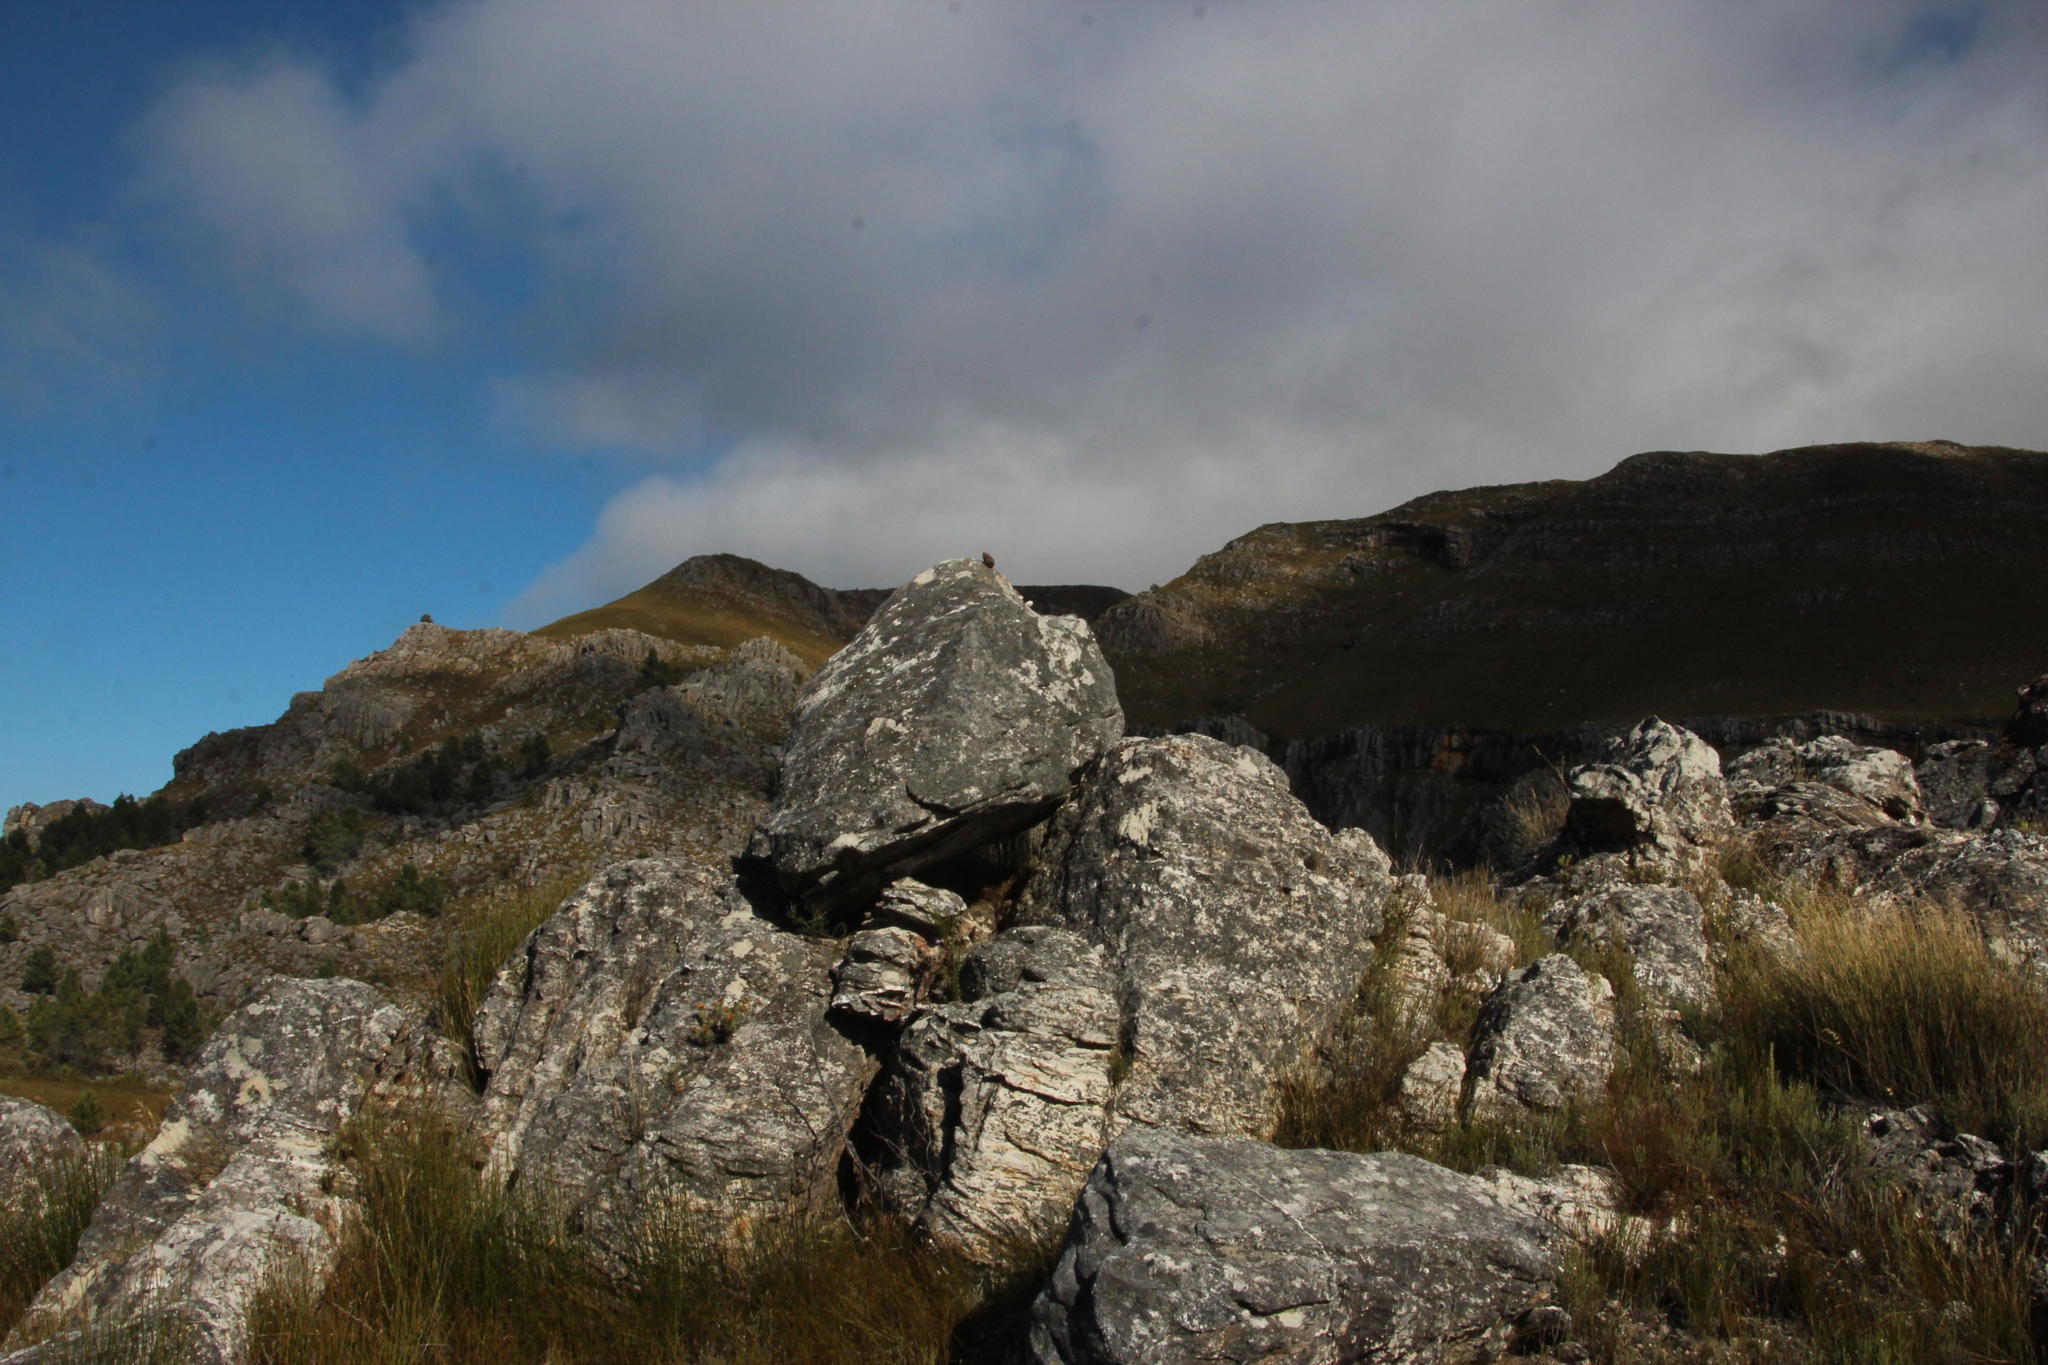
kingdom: Animalia
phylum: Chordata
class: Mammalia
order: Primates
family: Cercopithecidae
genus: Papio
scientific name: Papio ursinus
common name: Chacma baboon
